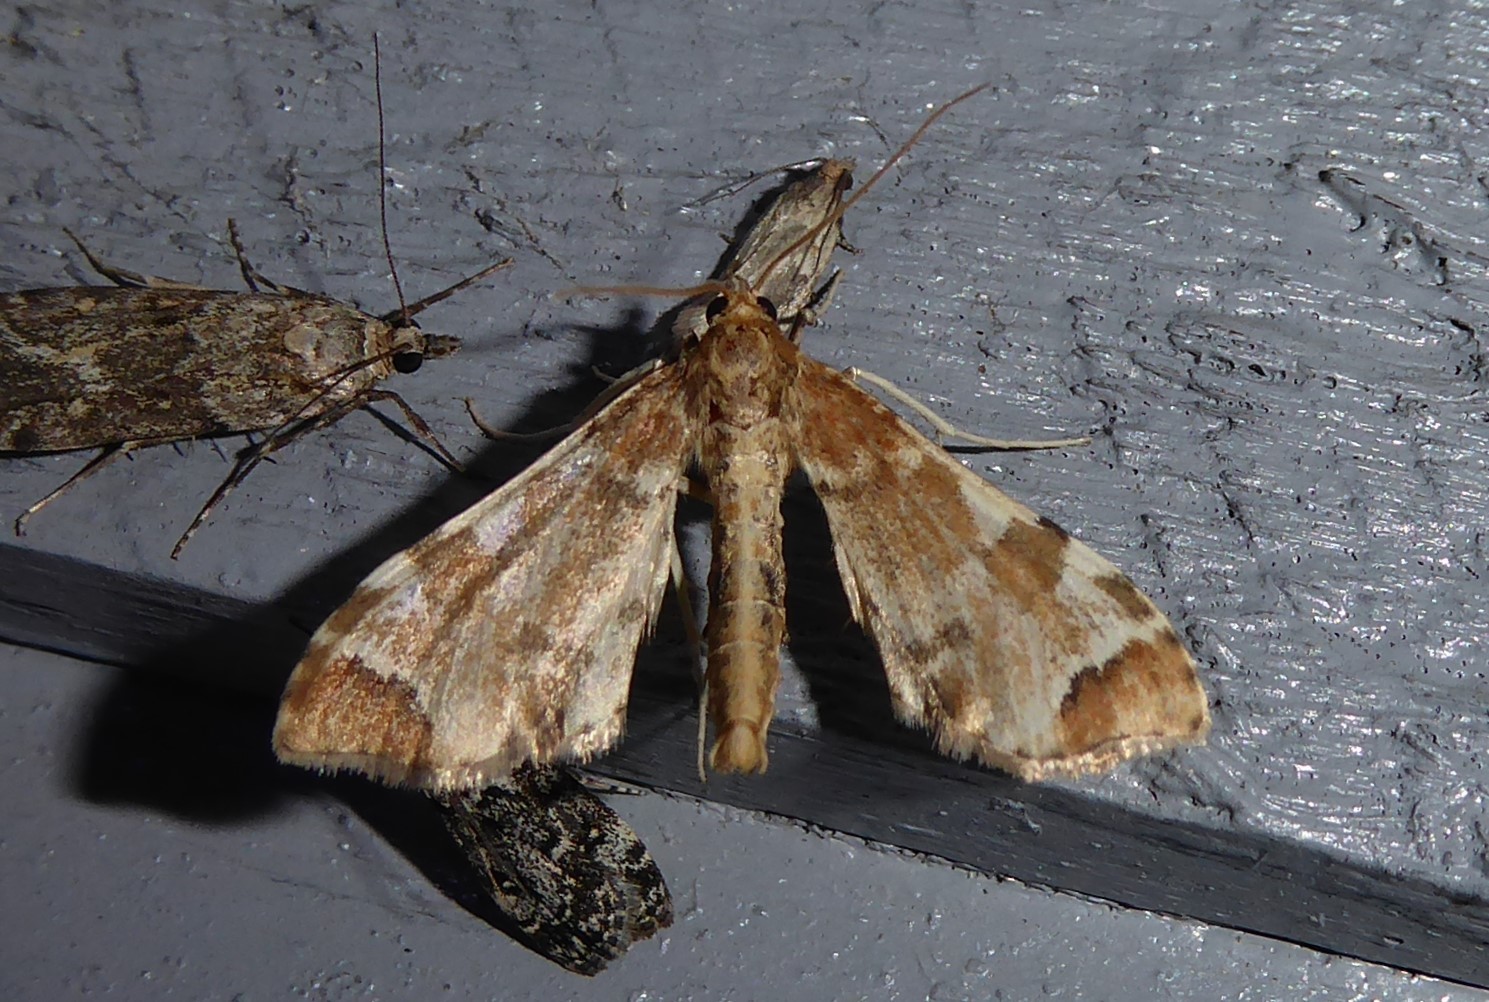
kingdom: Animalia
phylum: Arthropoda
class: Insecta
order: Lepidoptera
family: Crambidae
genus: Sceliodes
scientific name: Sceliodes cordalis
